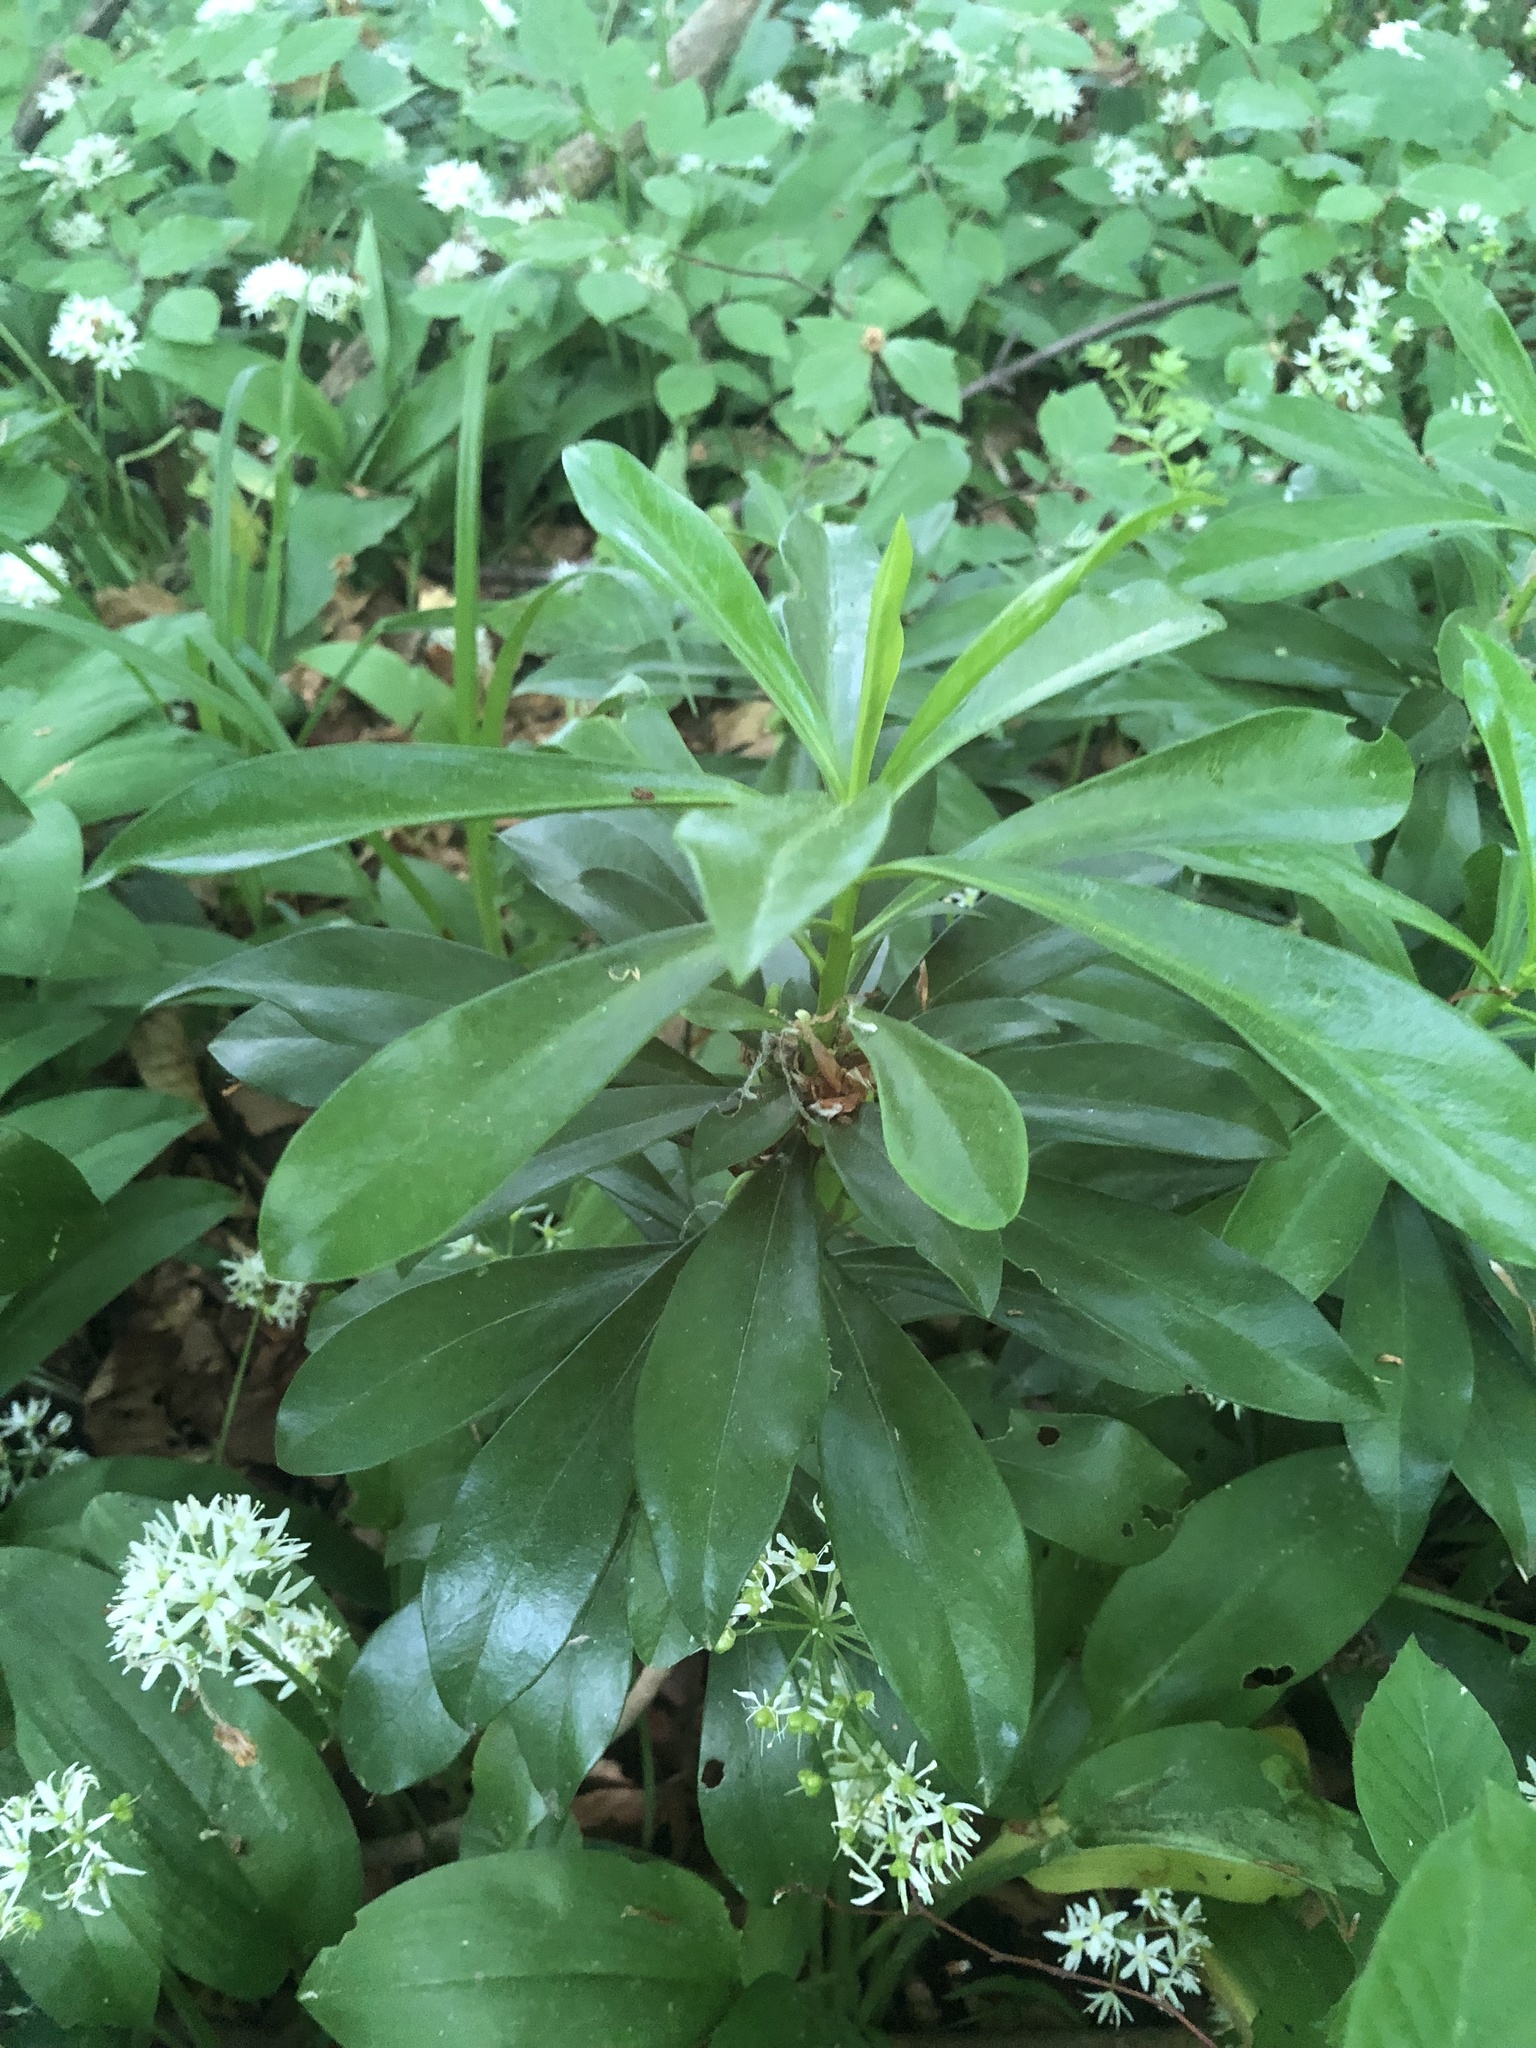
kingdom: Plantae
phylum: Tracheophyta
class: Magnoliopsida
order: Malvales
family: Thymelaeaceae
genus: Daphne
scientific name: Daphne laureola
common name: Spurge-laurel
